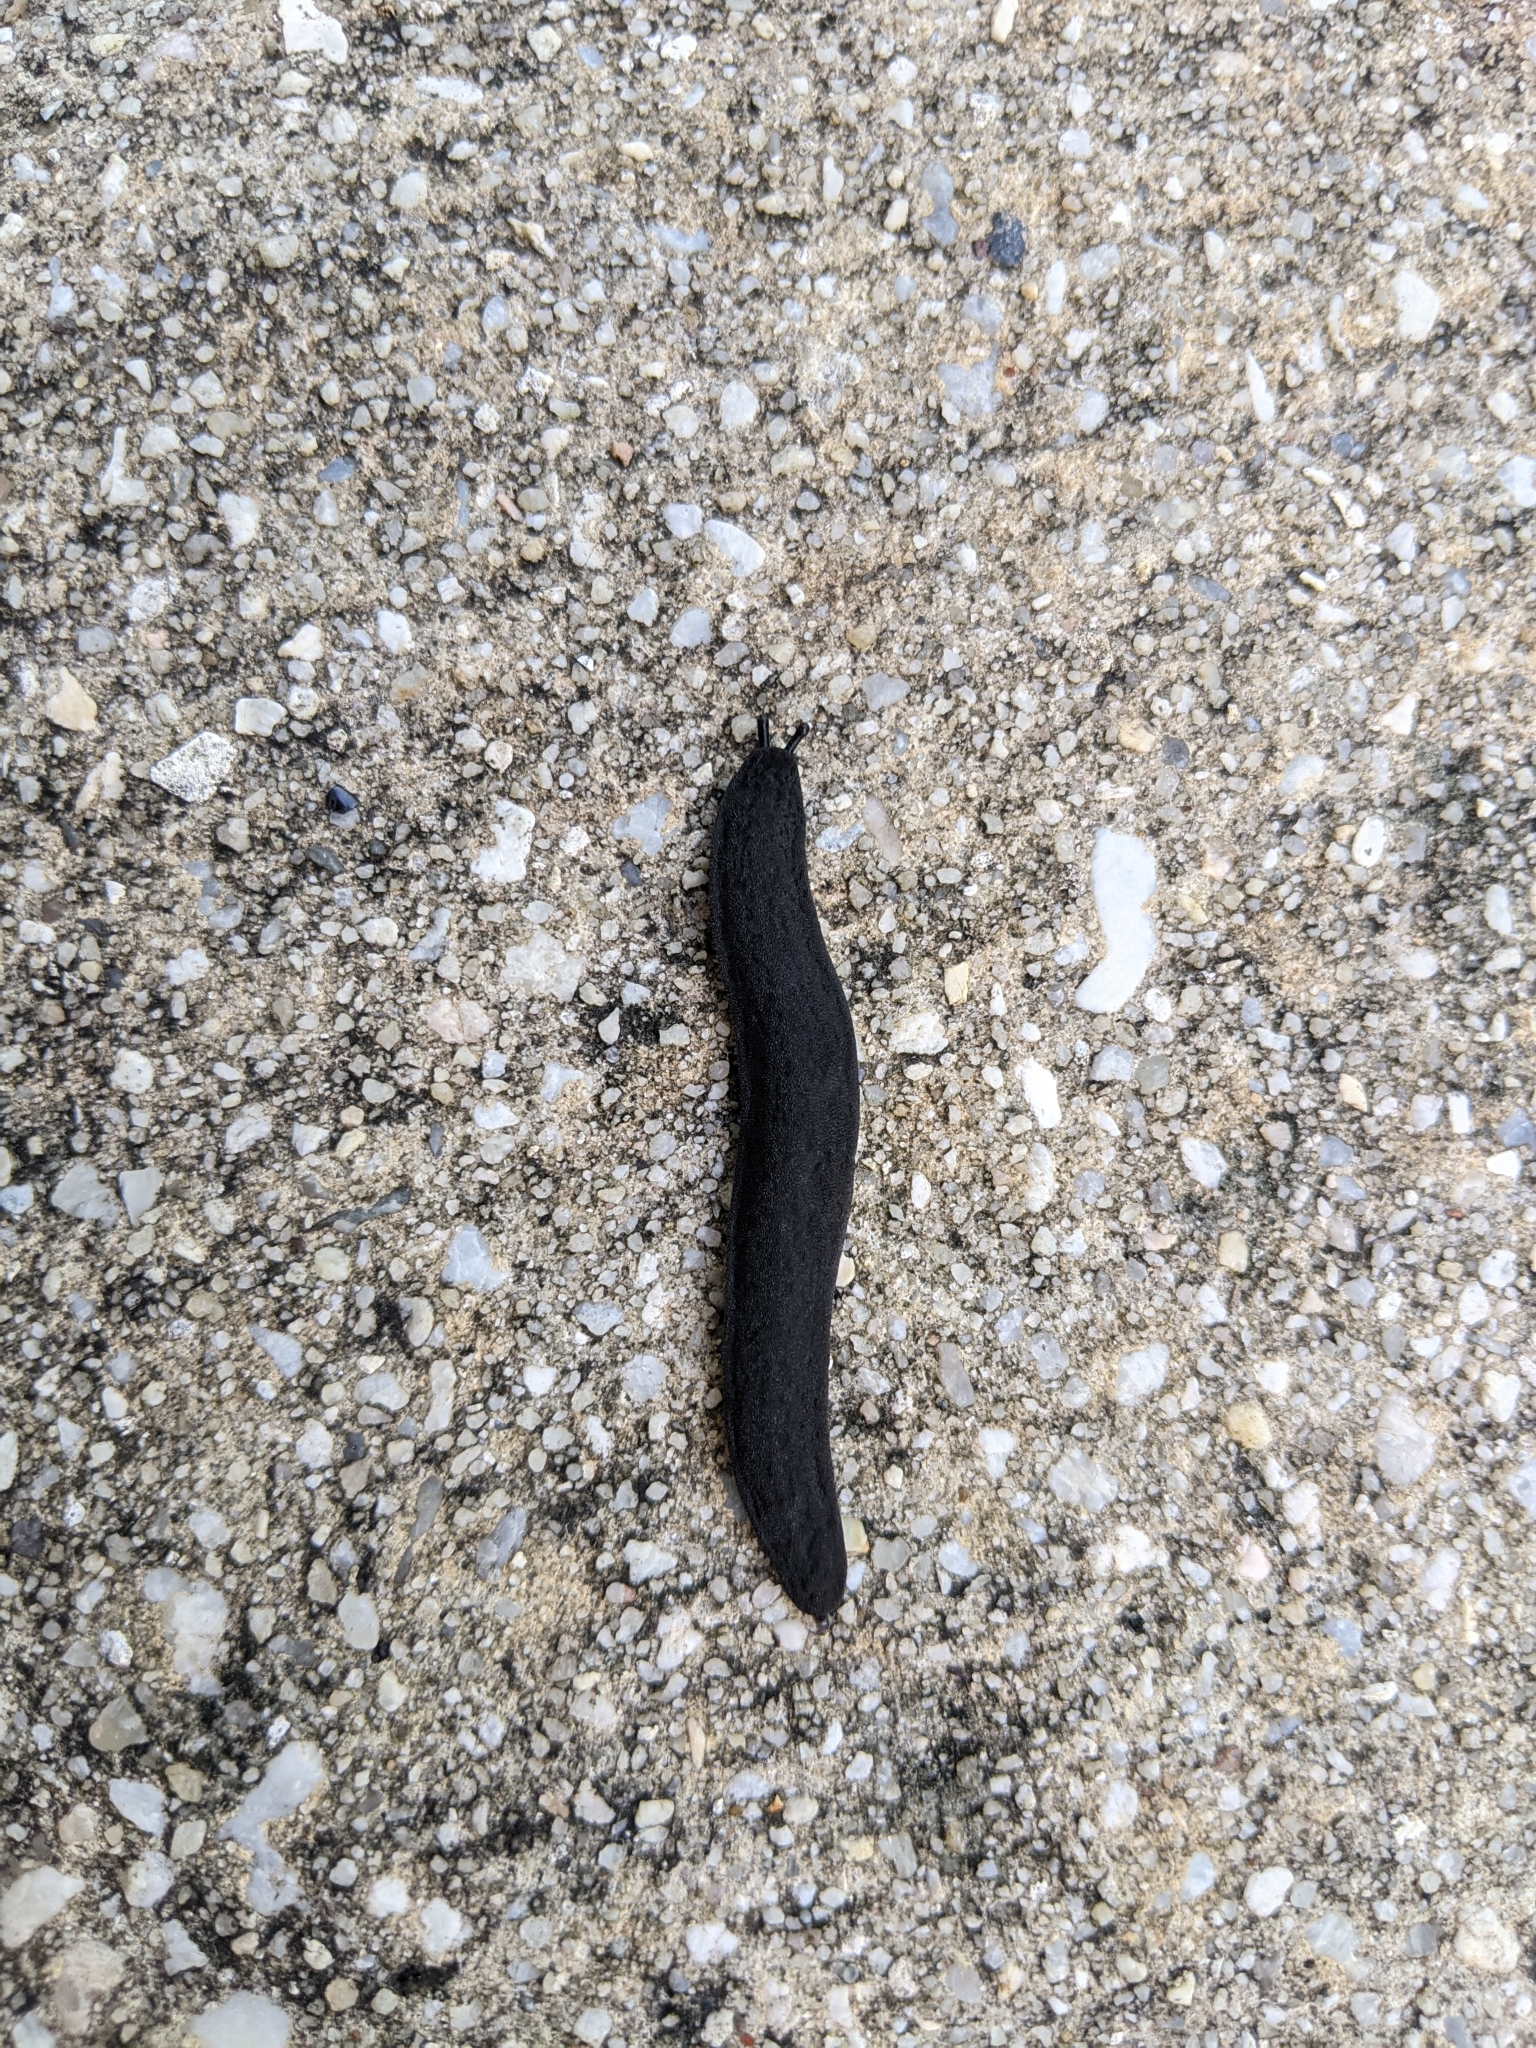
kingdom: Animalia
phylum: Mollusca
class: Gastropoda
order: Systellommatophora
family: Veronicellidae
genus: Belocaulus
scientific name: Belocaulus angustipes
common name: Black velvet leatherleaf slug
